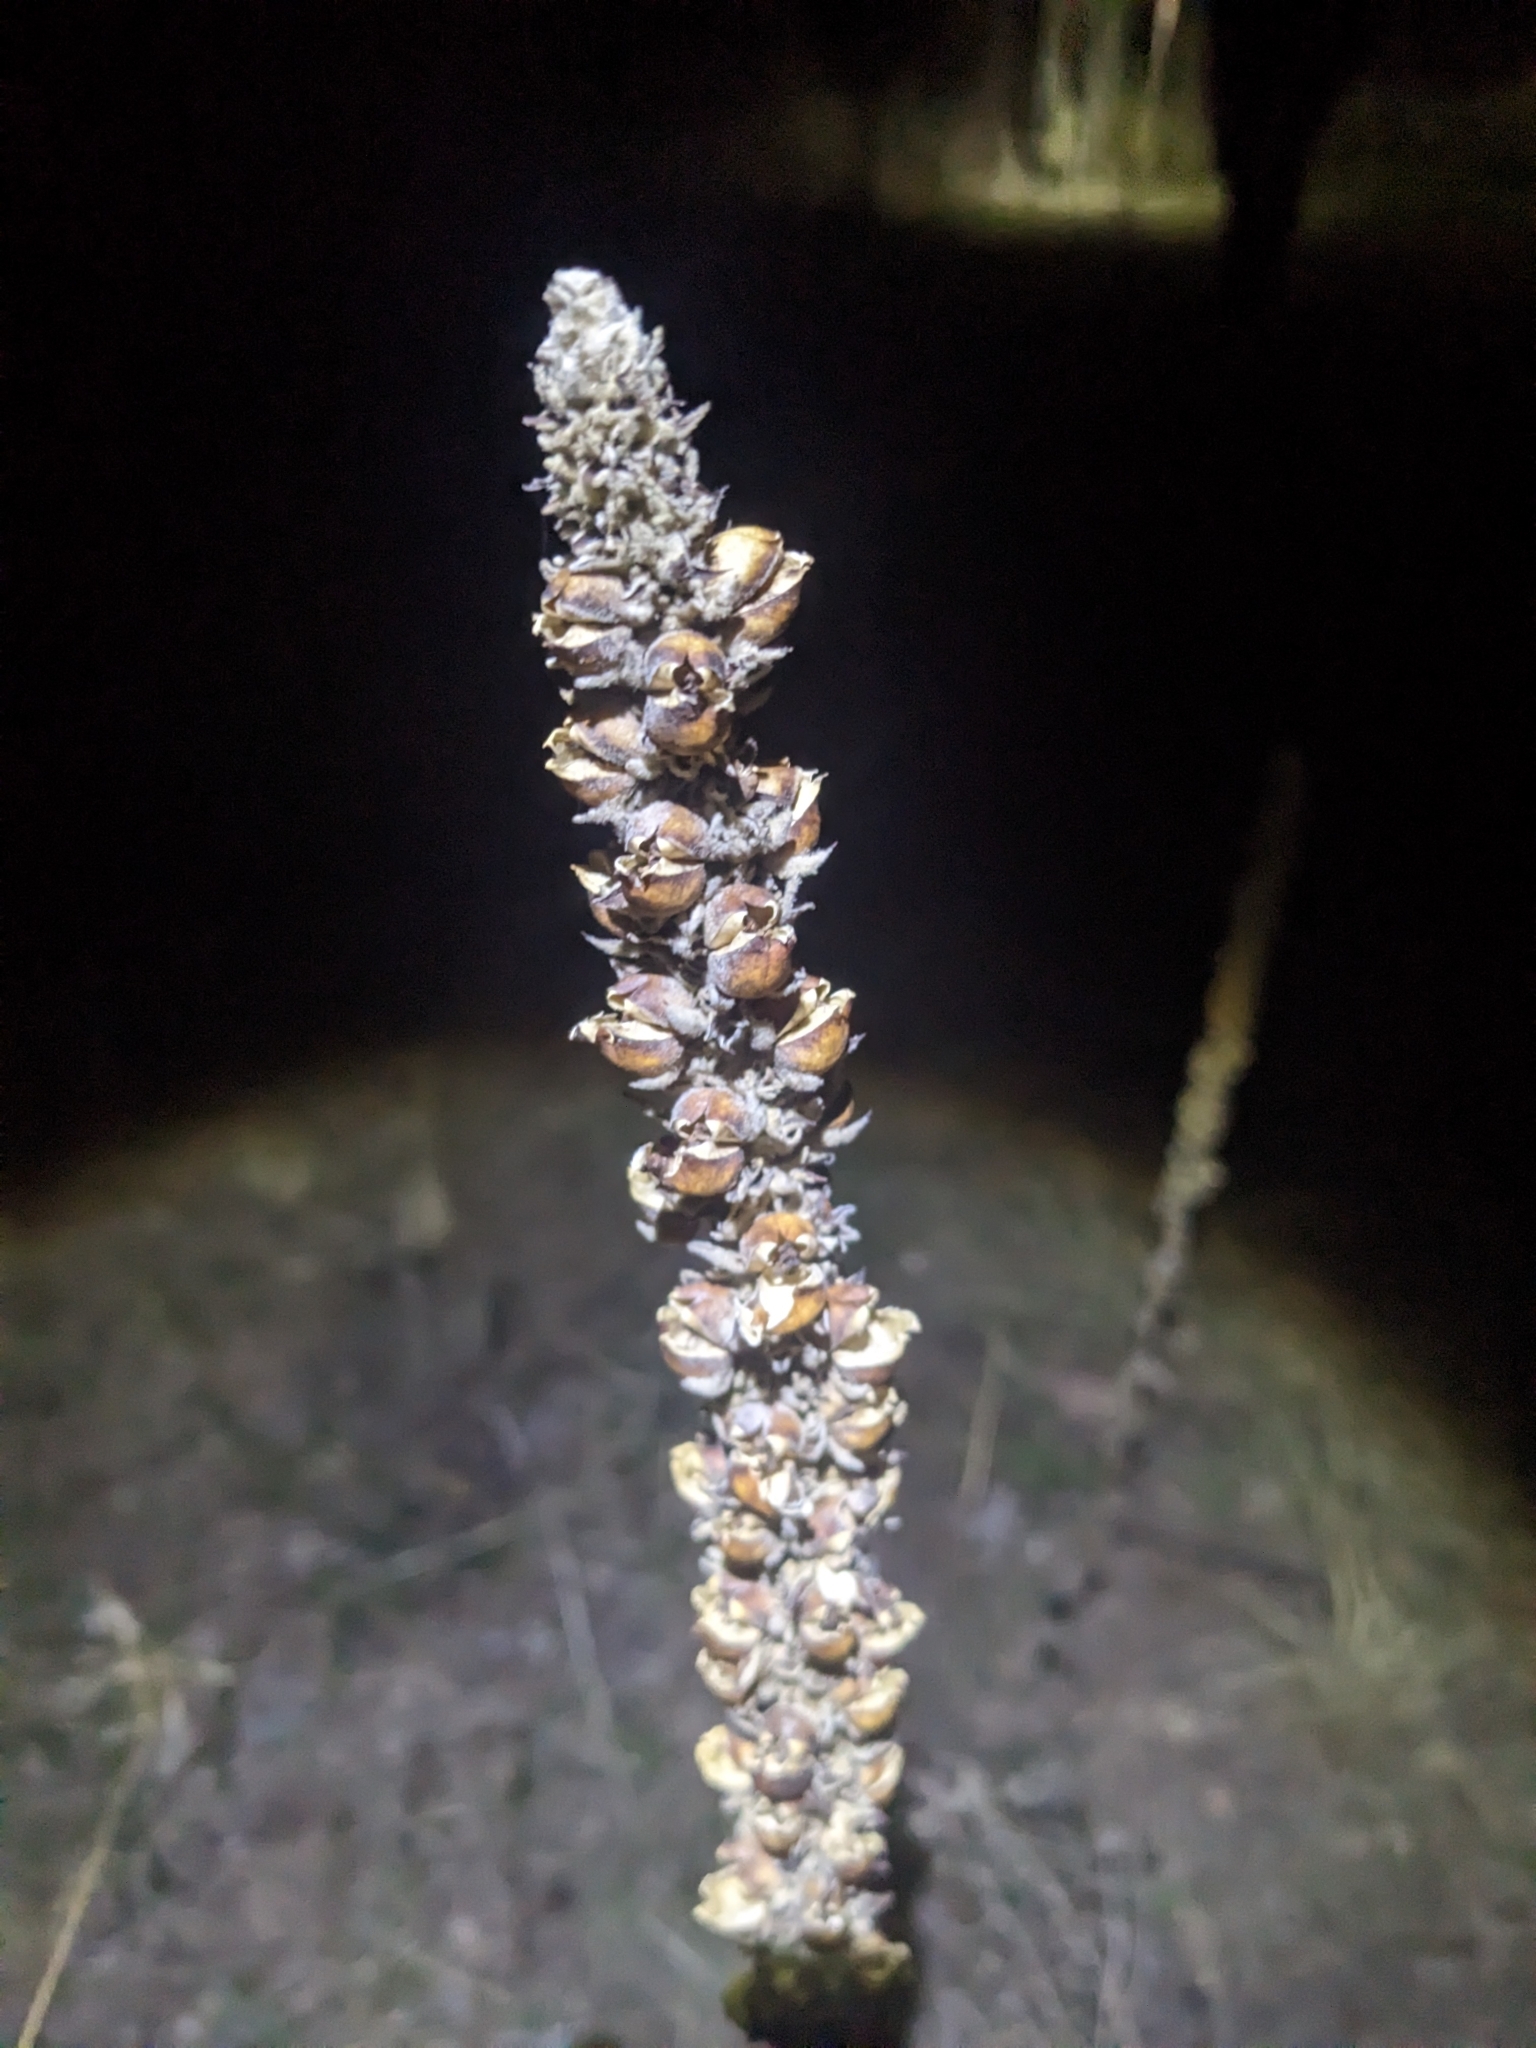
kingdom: Plantae
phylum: Tracheophyta
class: Magnoliopsida
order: Lamiales
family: Scrophulariaceae
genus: Verbascum
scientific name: Verbascum thapsus
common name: Common mullein
